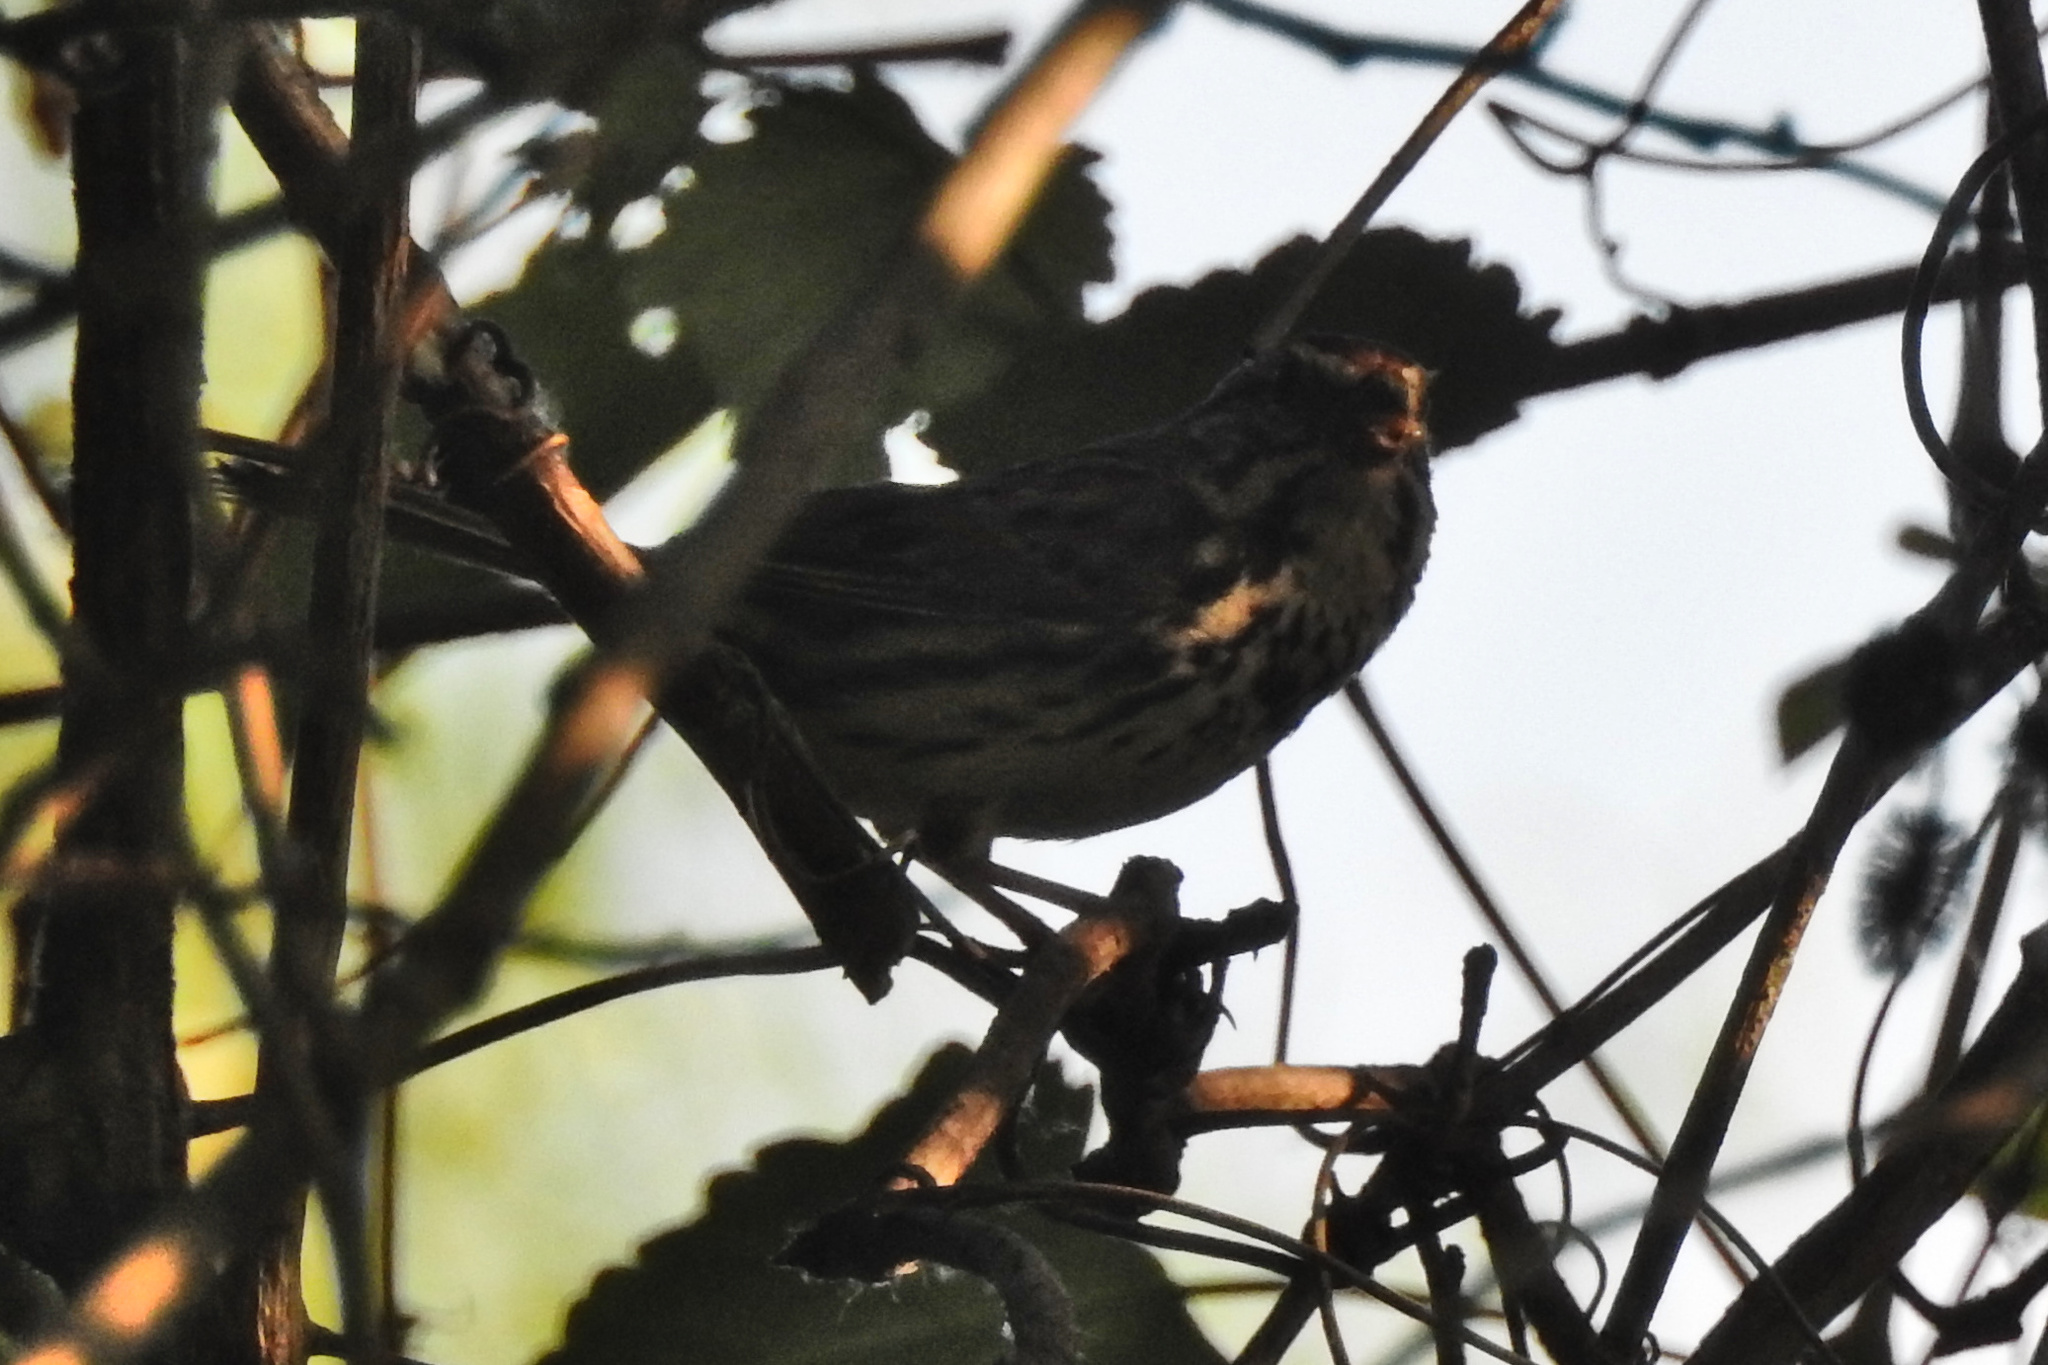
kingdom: Animalia
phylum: Chordata
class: Aves
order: Passeriformes
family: Passerellidae
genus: Melospiza
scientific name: Melospiza melodia
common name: Song sparrow
